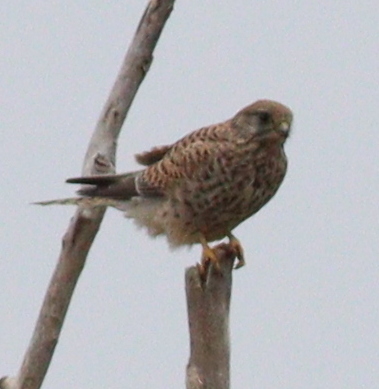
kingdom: Animalia
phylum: Chordata
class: Aves
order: Falconiformes
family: Falconidae
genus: Falco
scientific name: Falco tinnunculus
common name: Common kestrel
